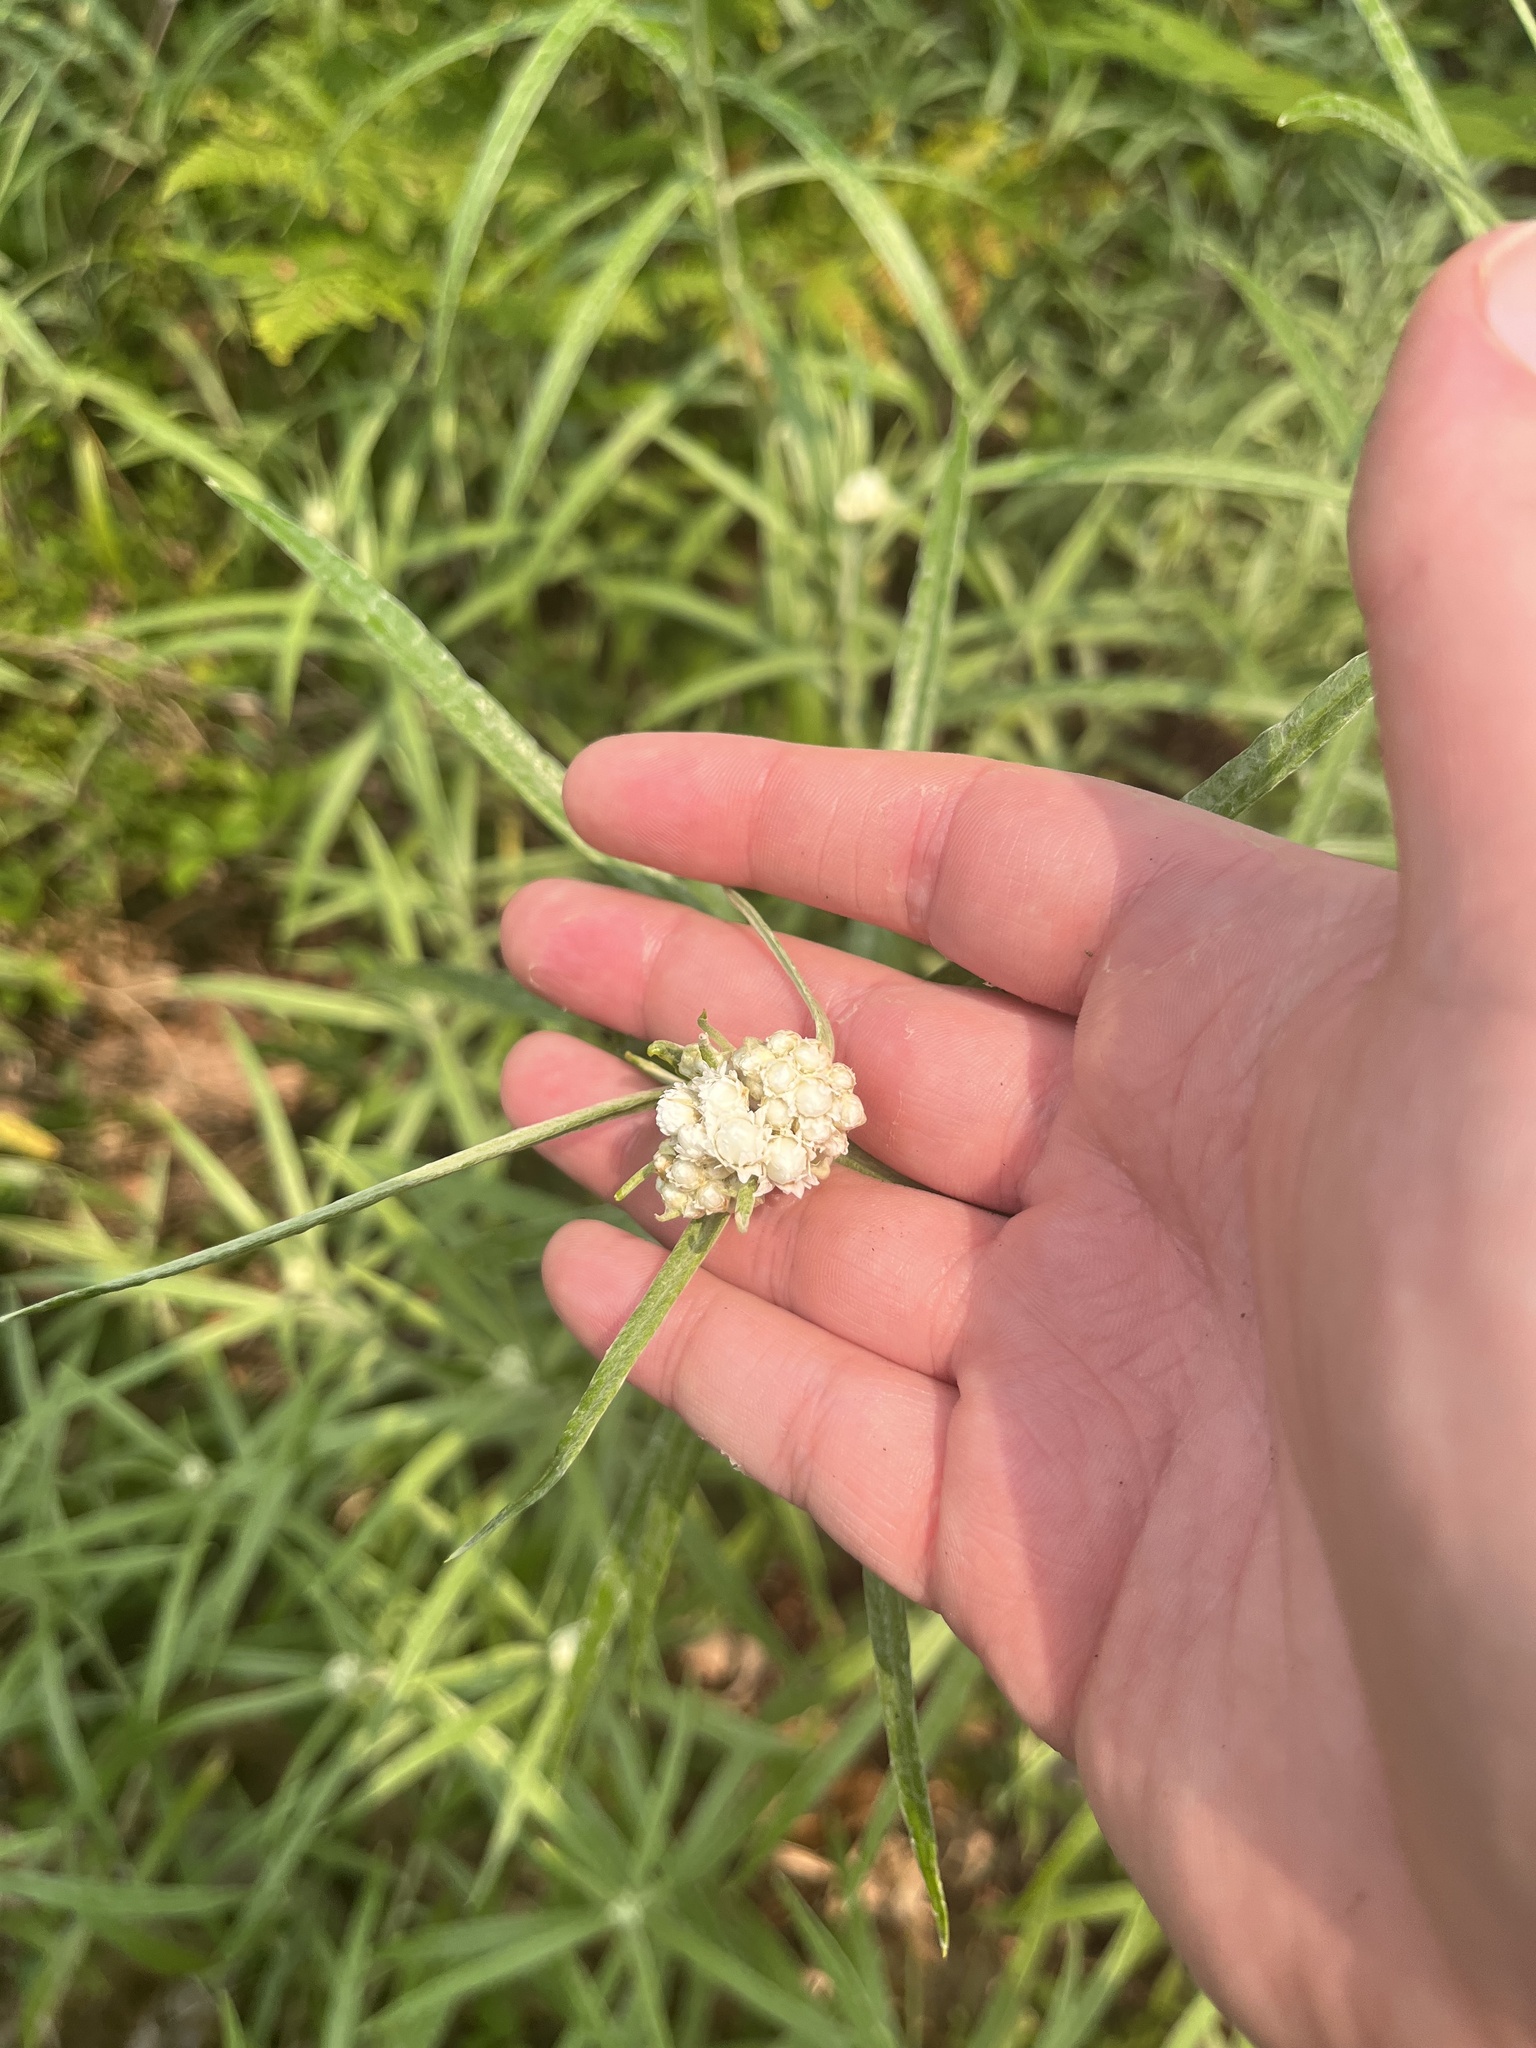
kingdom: Plantae
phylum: Tracheophyta
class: Magnoliopsida
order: Asterales
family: Asteraceae
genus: Anaphalis
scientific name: Anaphalis margaritacea
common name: Pearly everlasting
